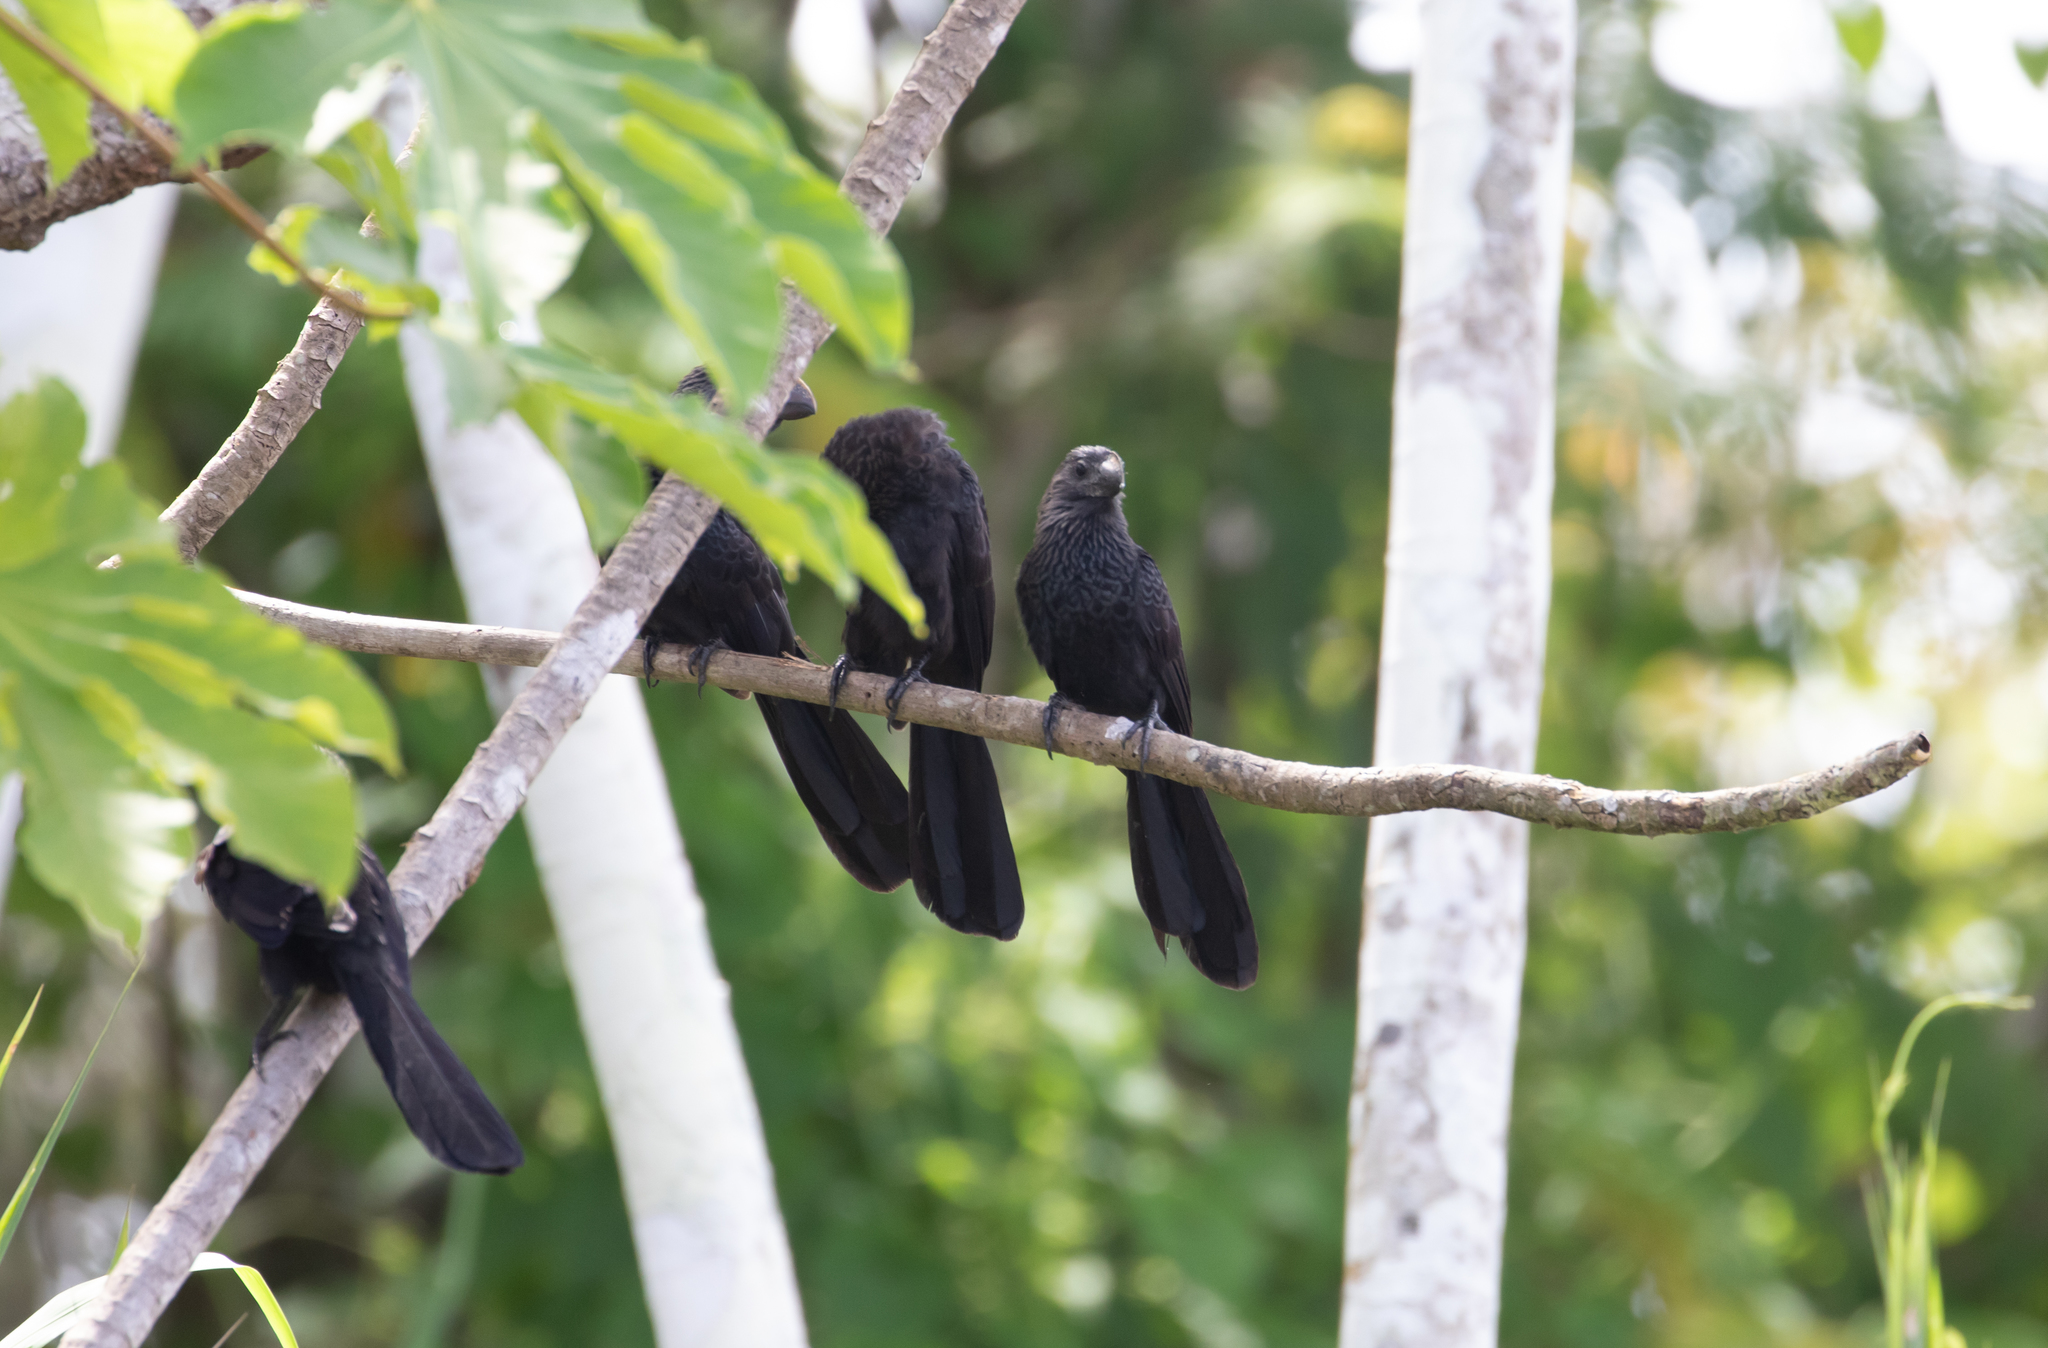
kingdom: Animalia
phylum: Chordata
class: Aves
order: Cuculiformes
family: Cuculidae
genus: Crotophaga
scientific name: Crotophaga ani
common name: Smooth-billed ani
